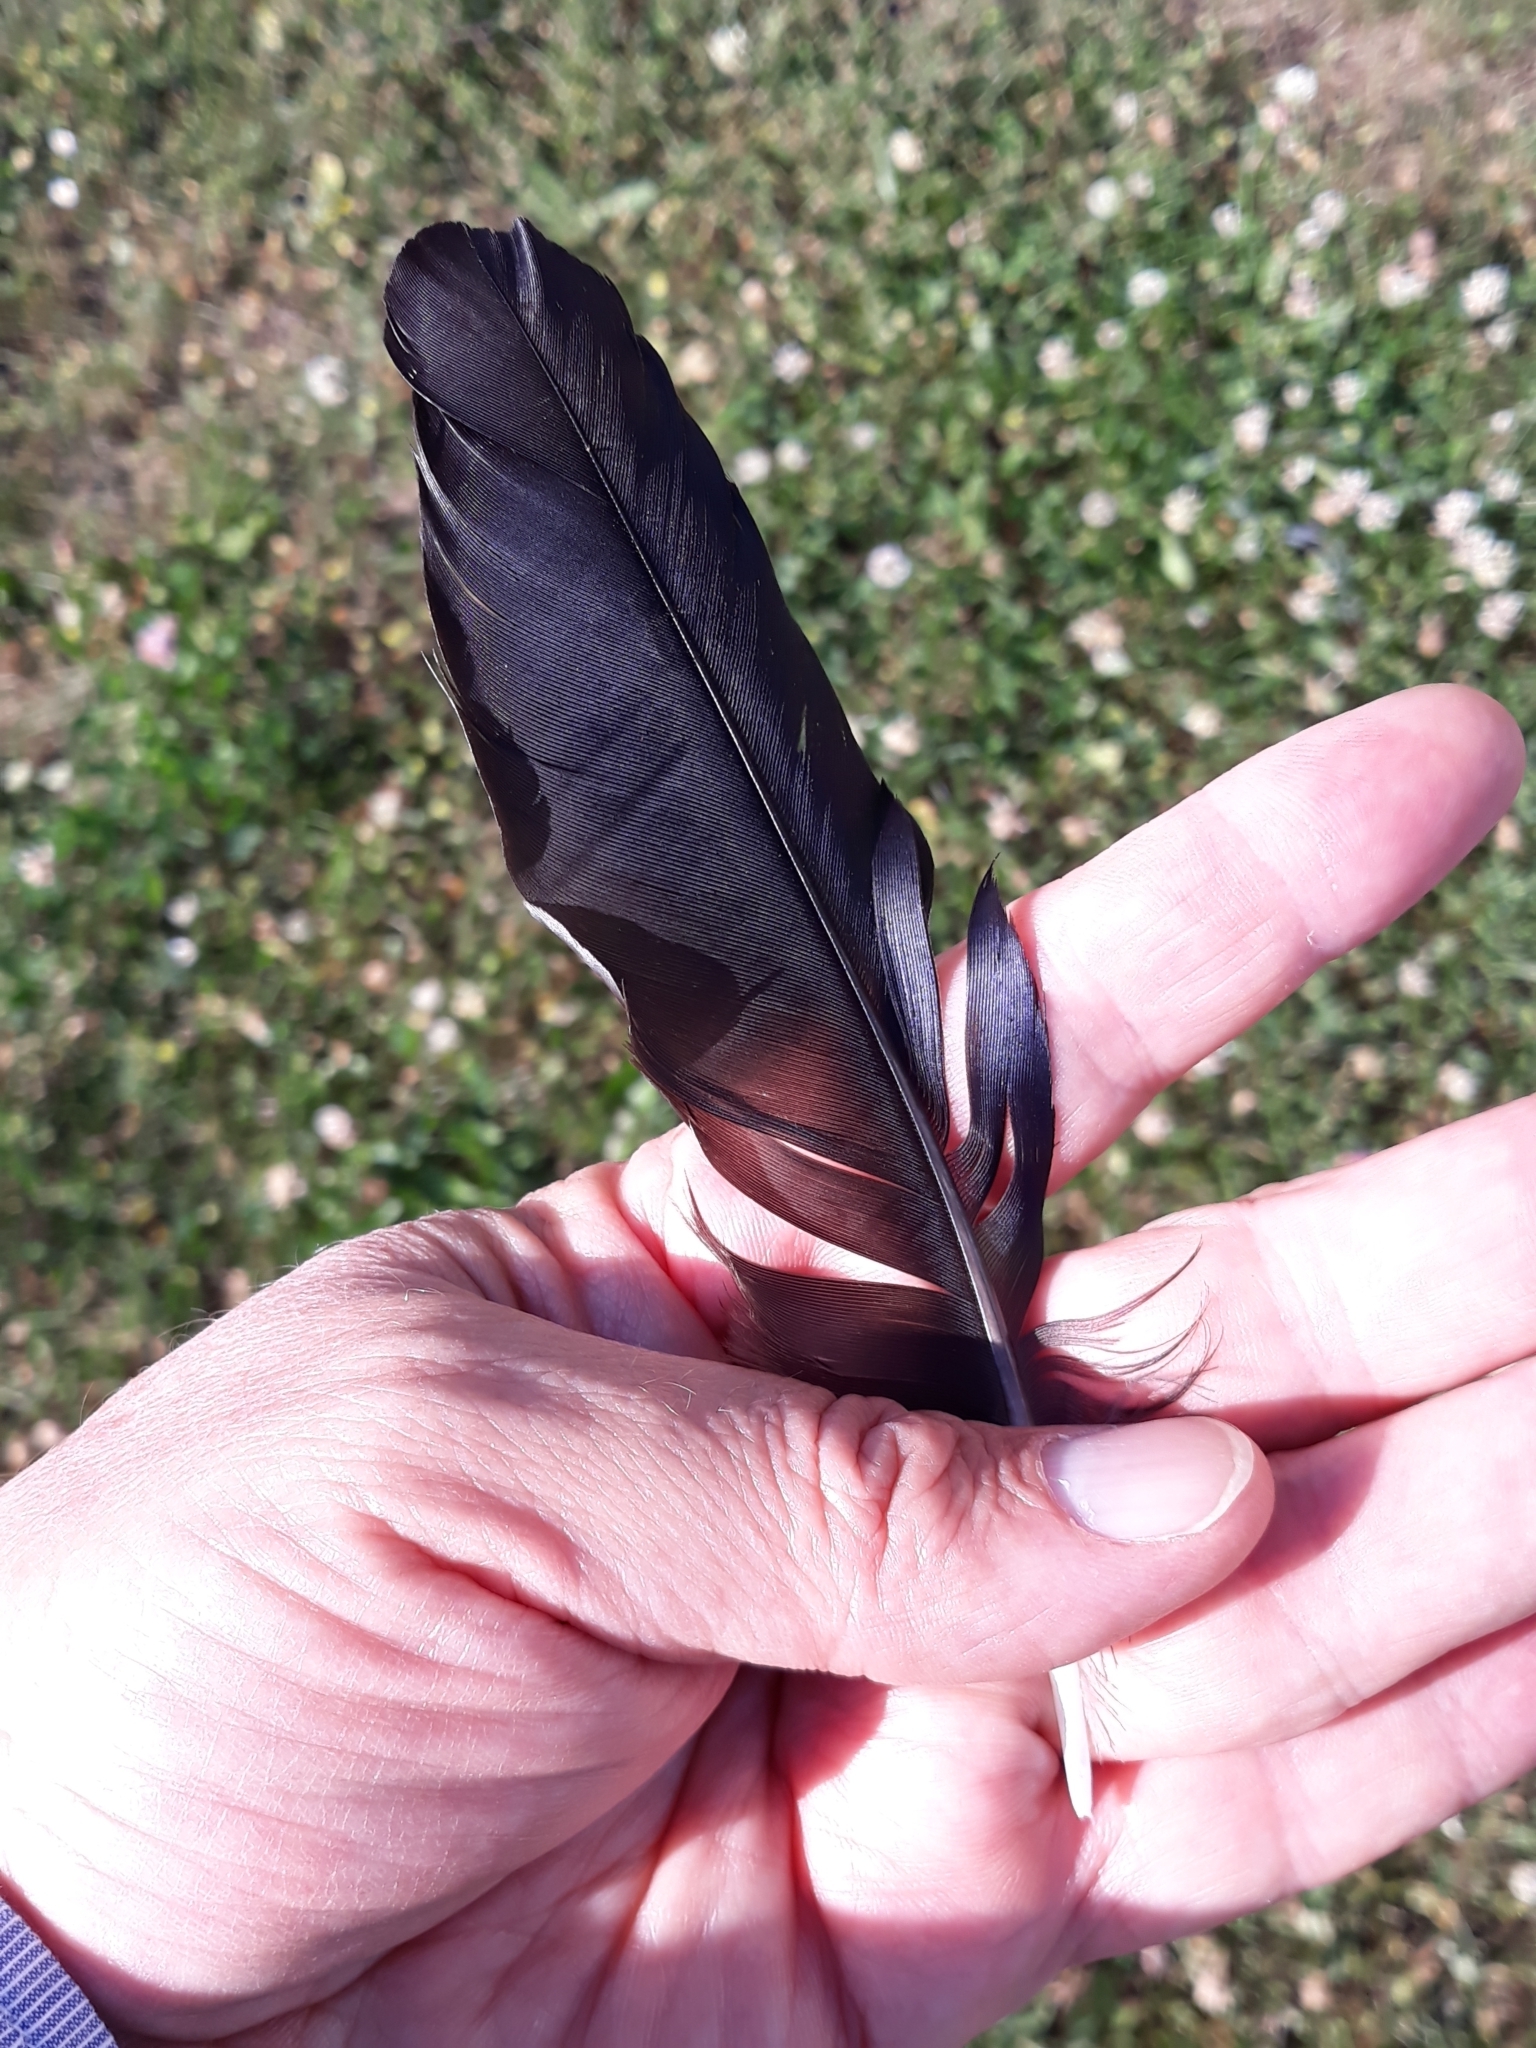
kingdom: Animalia
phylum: Chordata
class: Aves
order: Passeriformes
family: Corvidae
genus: Pica
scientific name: Pica pica
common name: Eurasian magpie
